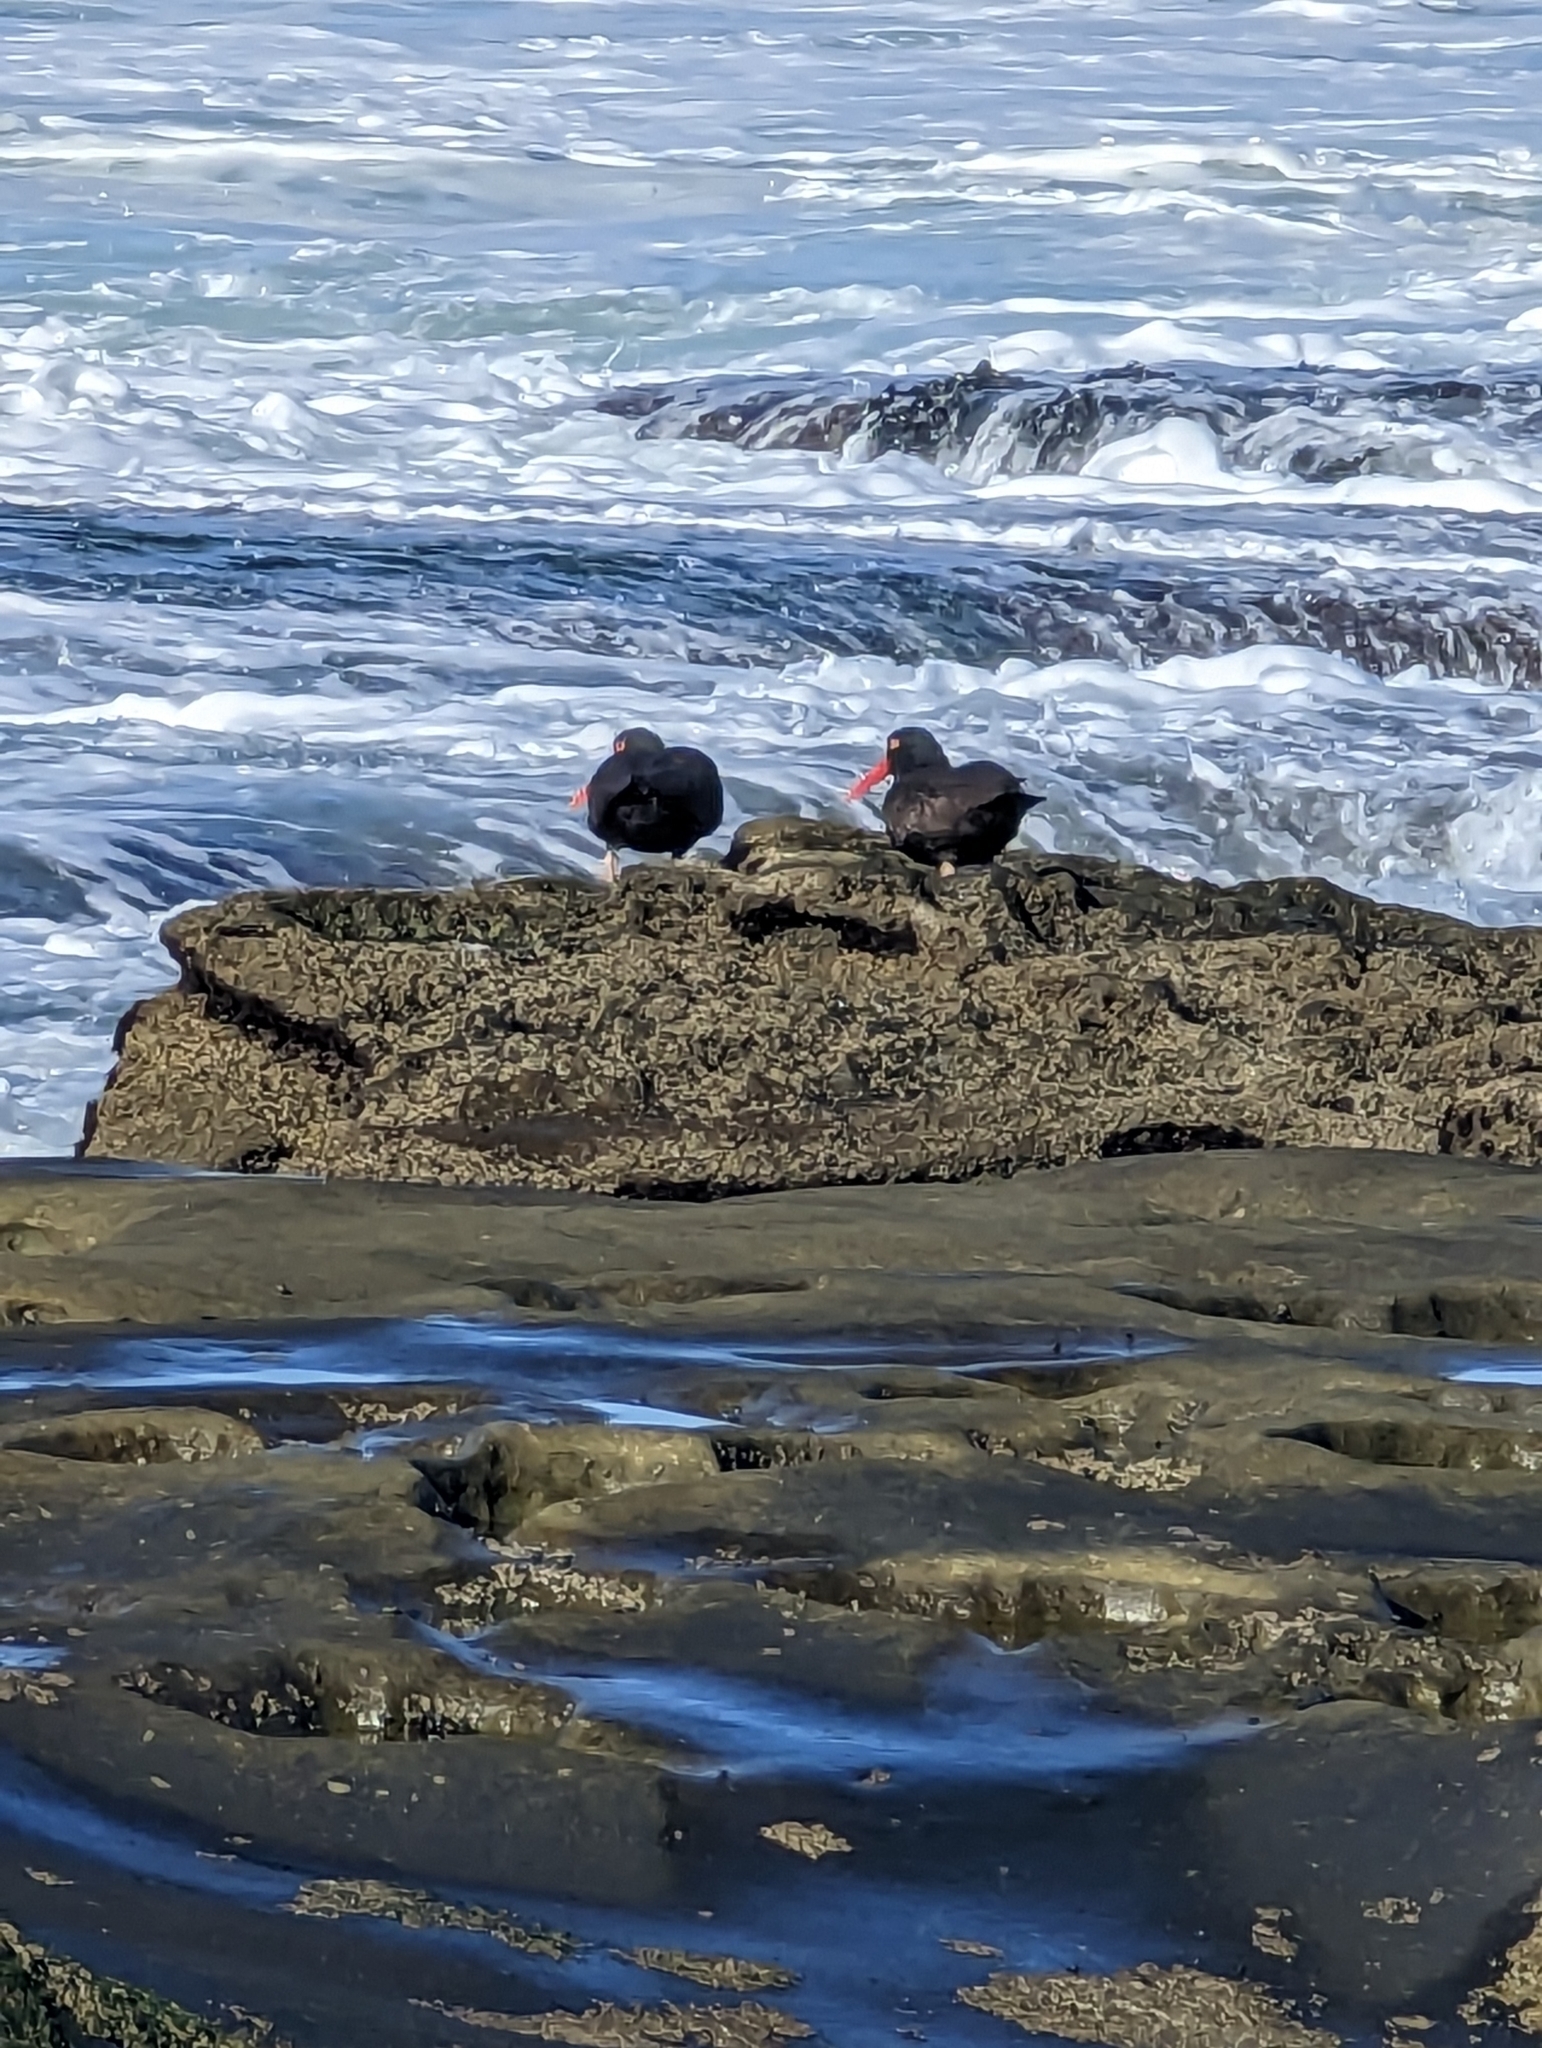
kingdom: Animalia
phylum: Chordata
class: Aves
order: Charadriiformes
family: Haematopodidae
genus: Haematopus
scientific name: Haematopus bachmani
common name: Black oystercatcher
